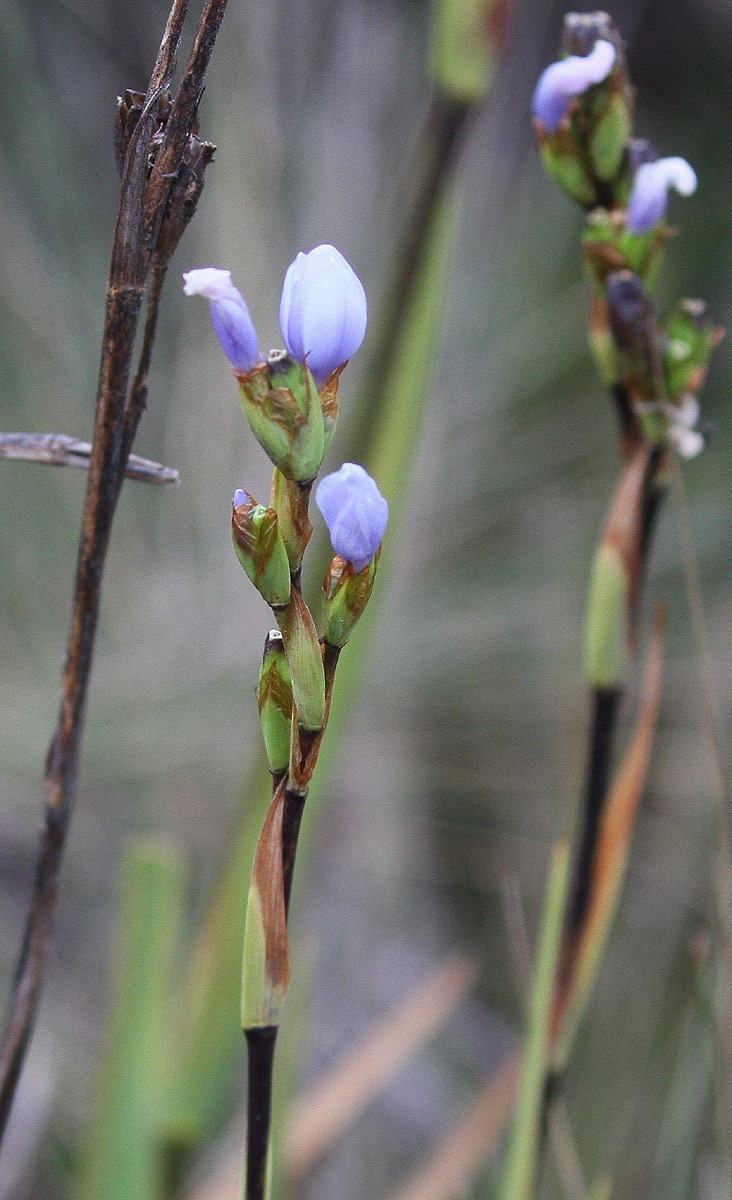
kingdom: Plantae
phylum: Tracheophyta
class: Liliopsida
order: Asparagales
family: Iridaceae
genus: Orthrosanthus
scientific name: Orthrosanthus chimboracensis
